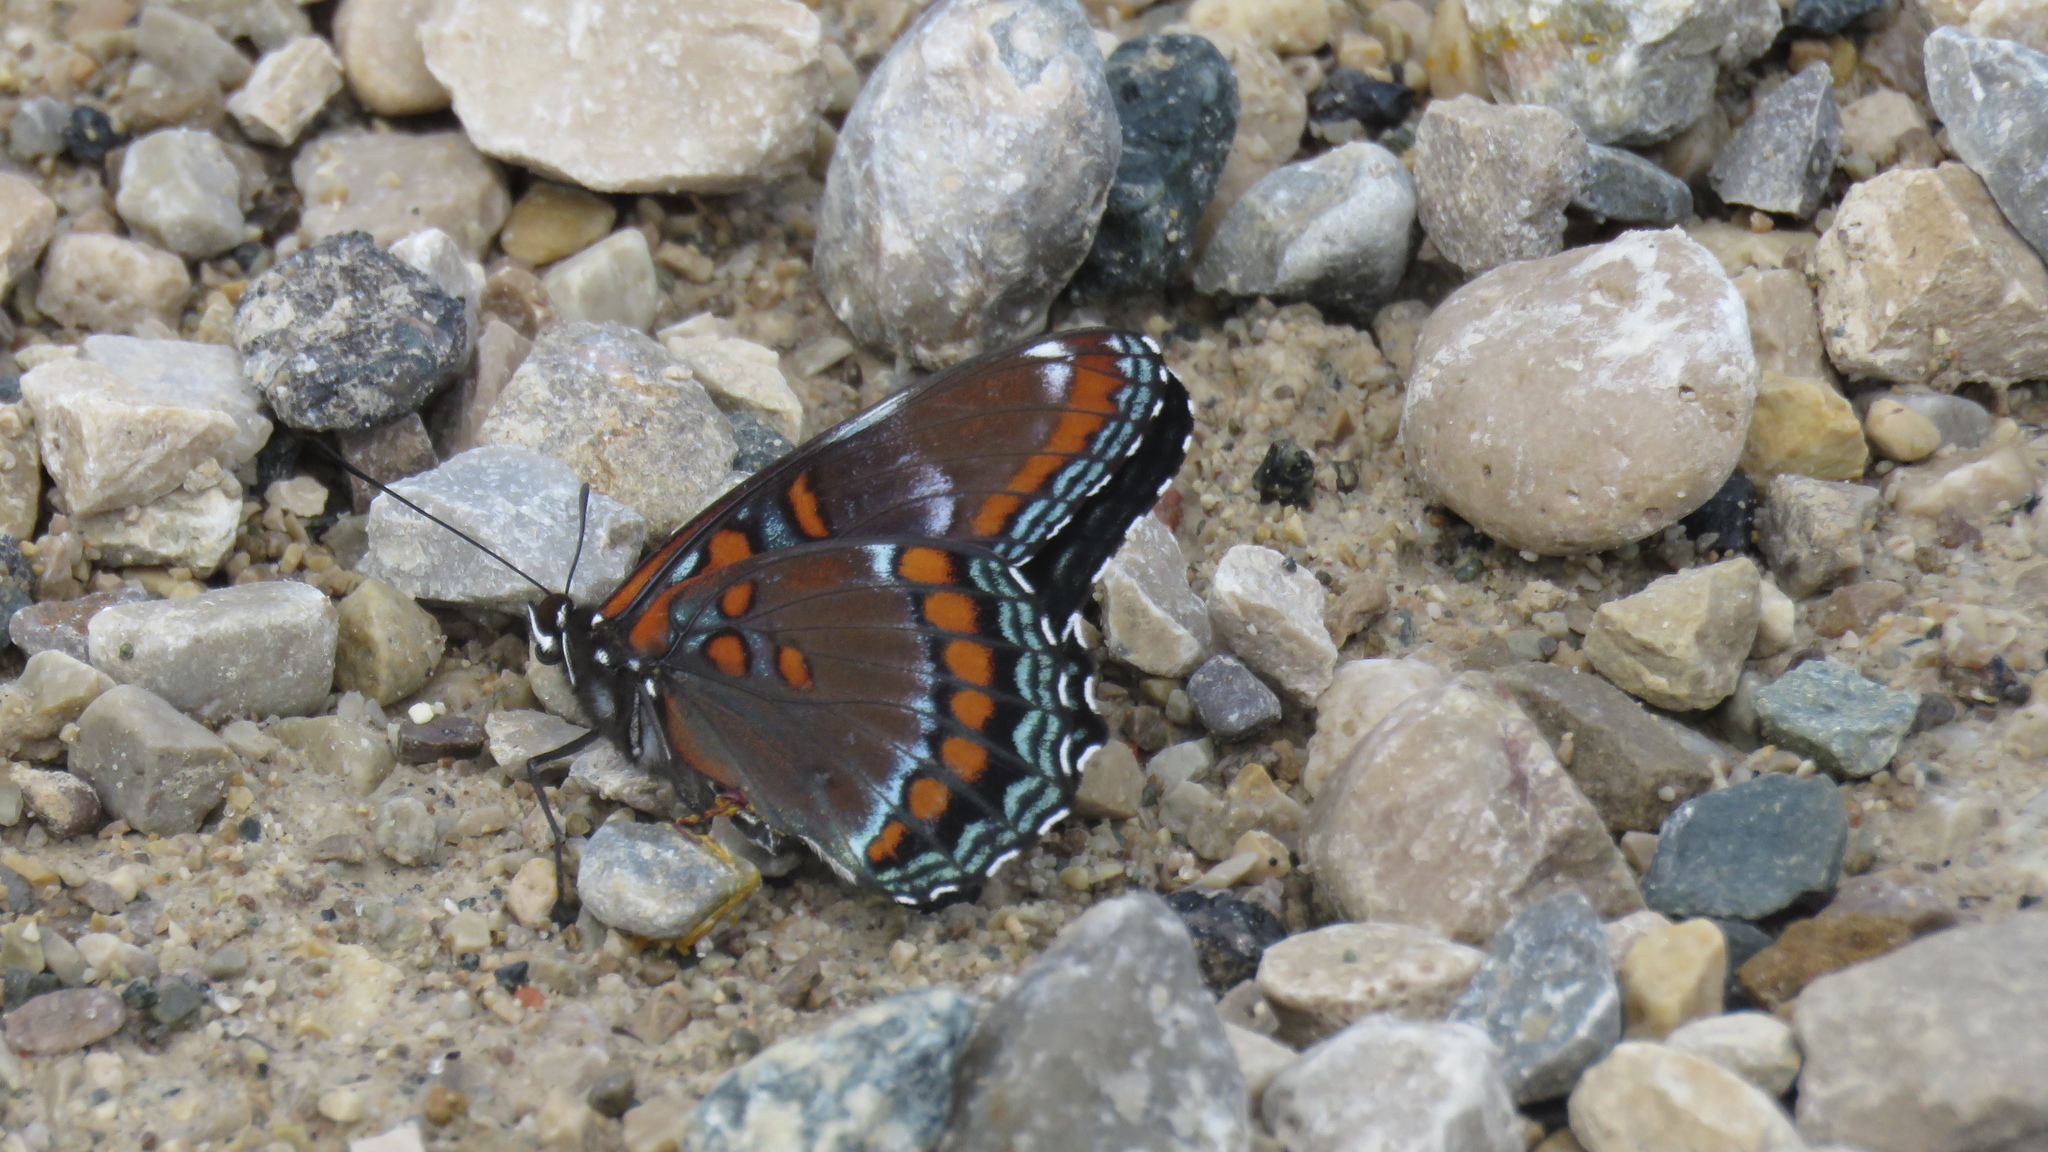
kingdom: Animalia
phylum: Arthropoda
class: Insecta
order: Lepidoptera
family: Nymphalidae
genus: Limenitis
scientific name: Limenitis astyanax
